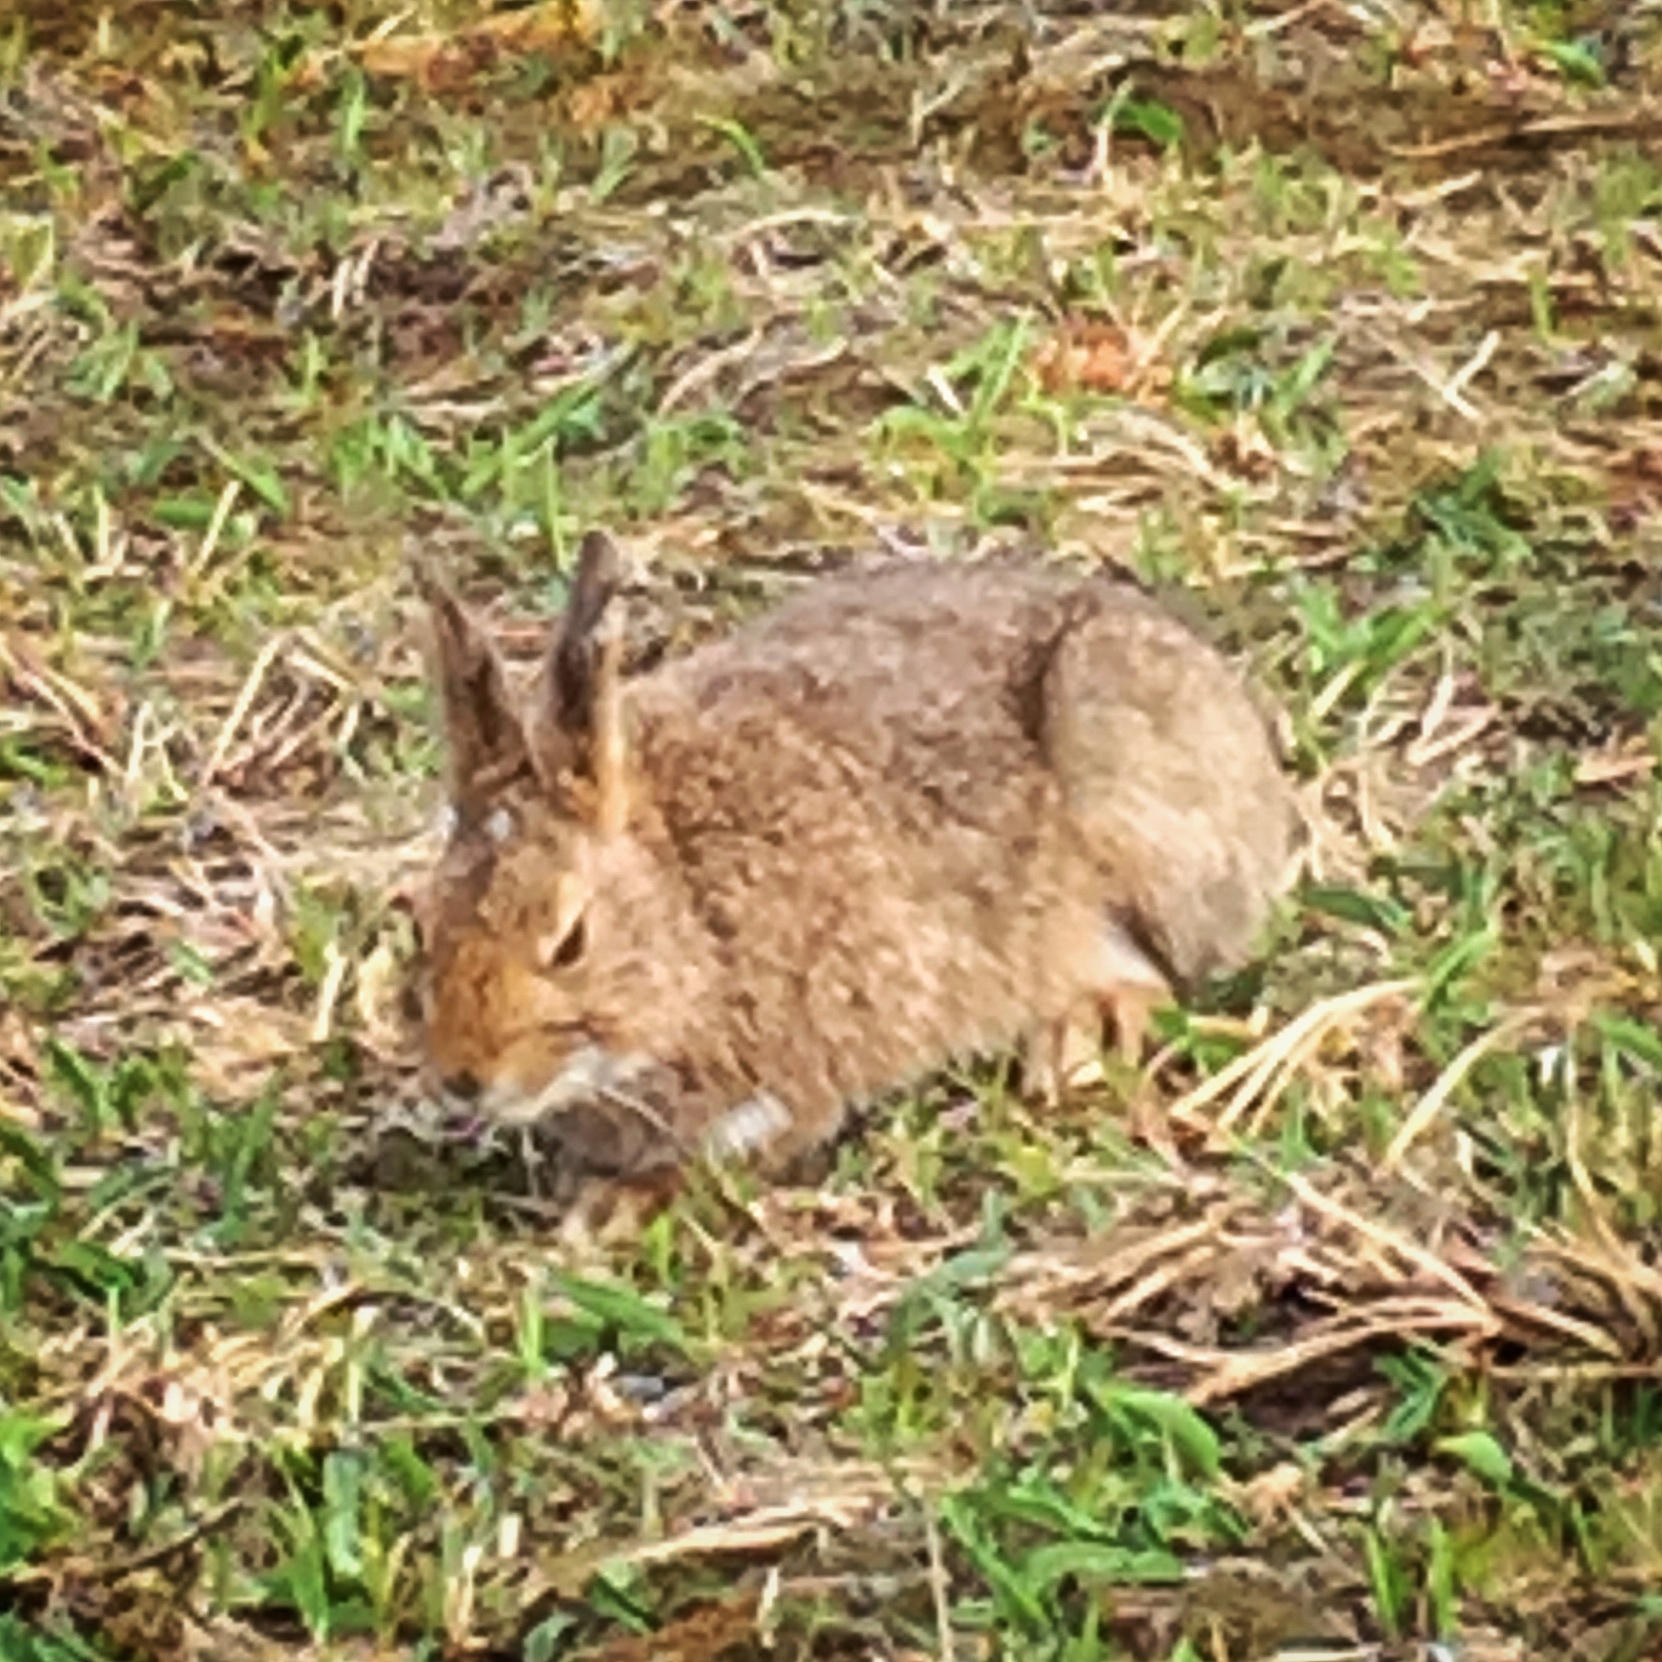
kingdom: Animalia
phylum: Chordata
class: Mammalia
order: Lagomorpha
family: Leporidae
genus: Lepus
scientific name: Lepus americanus
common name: Snowshoe hare
